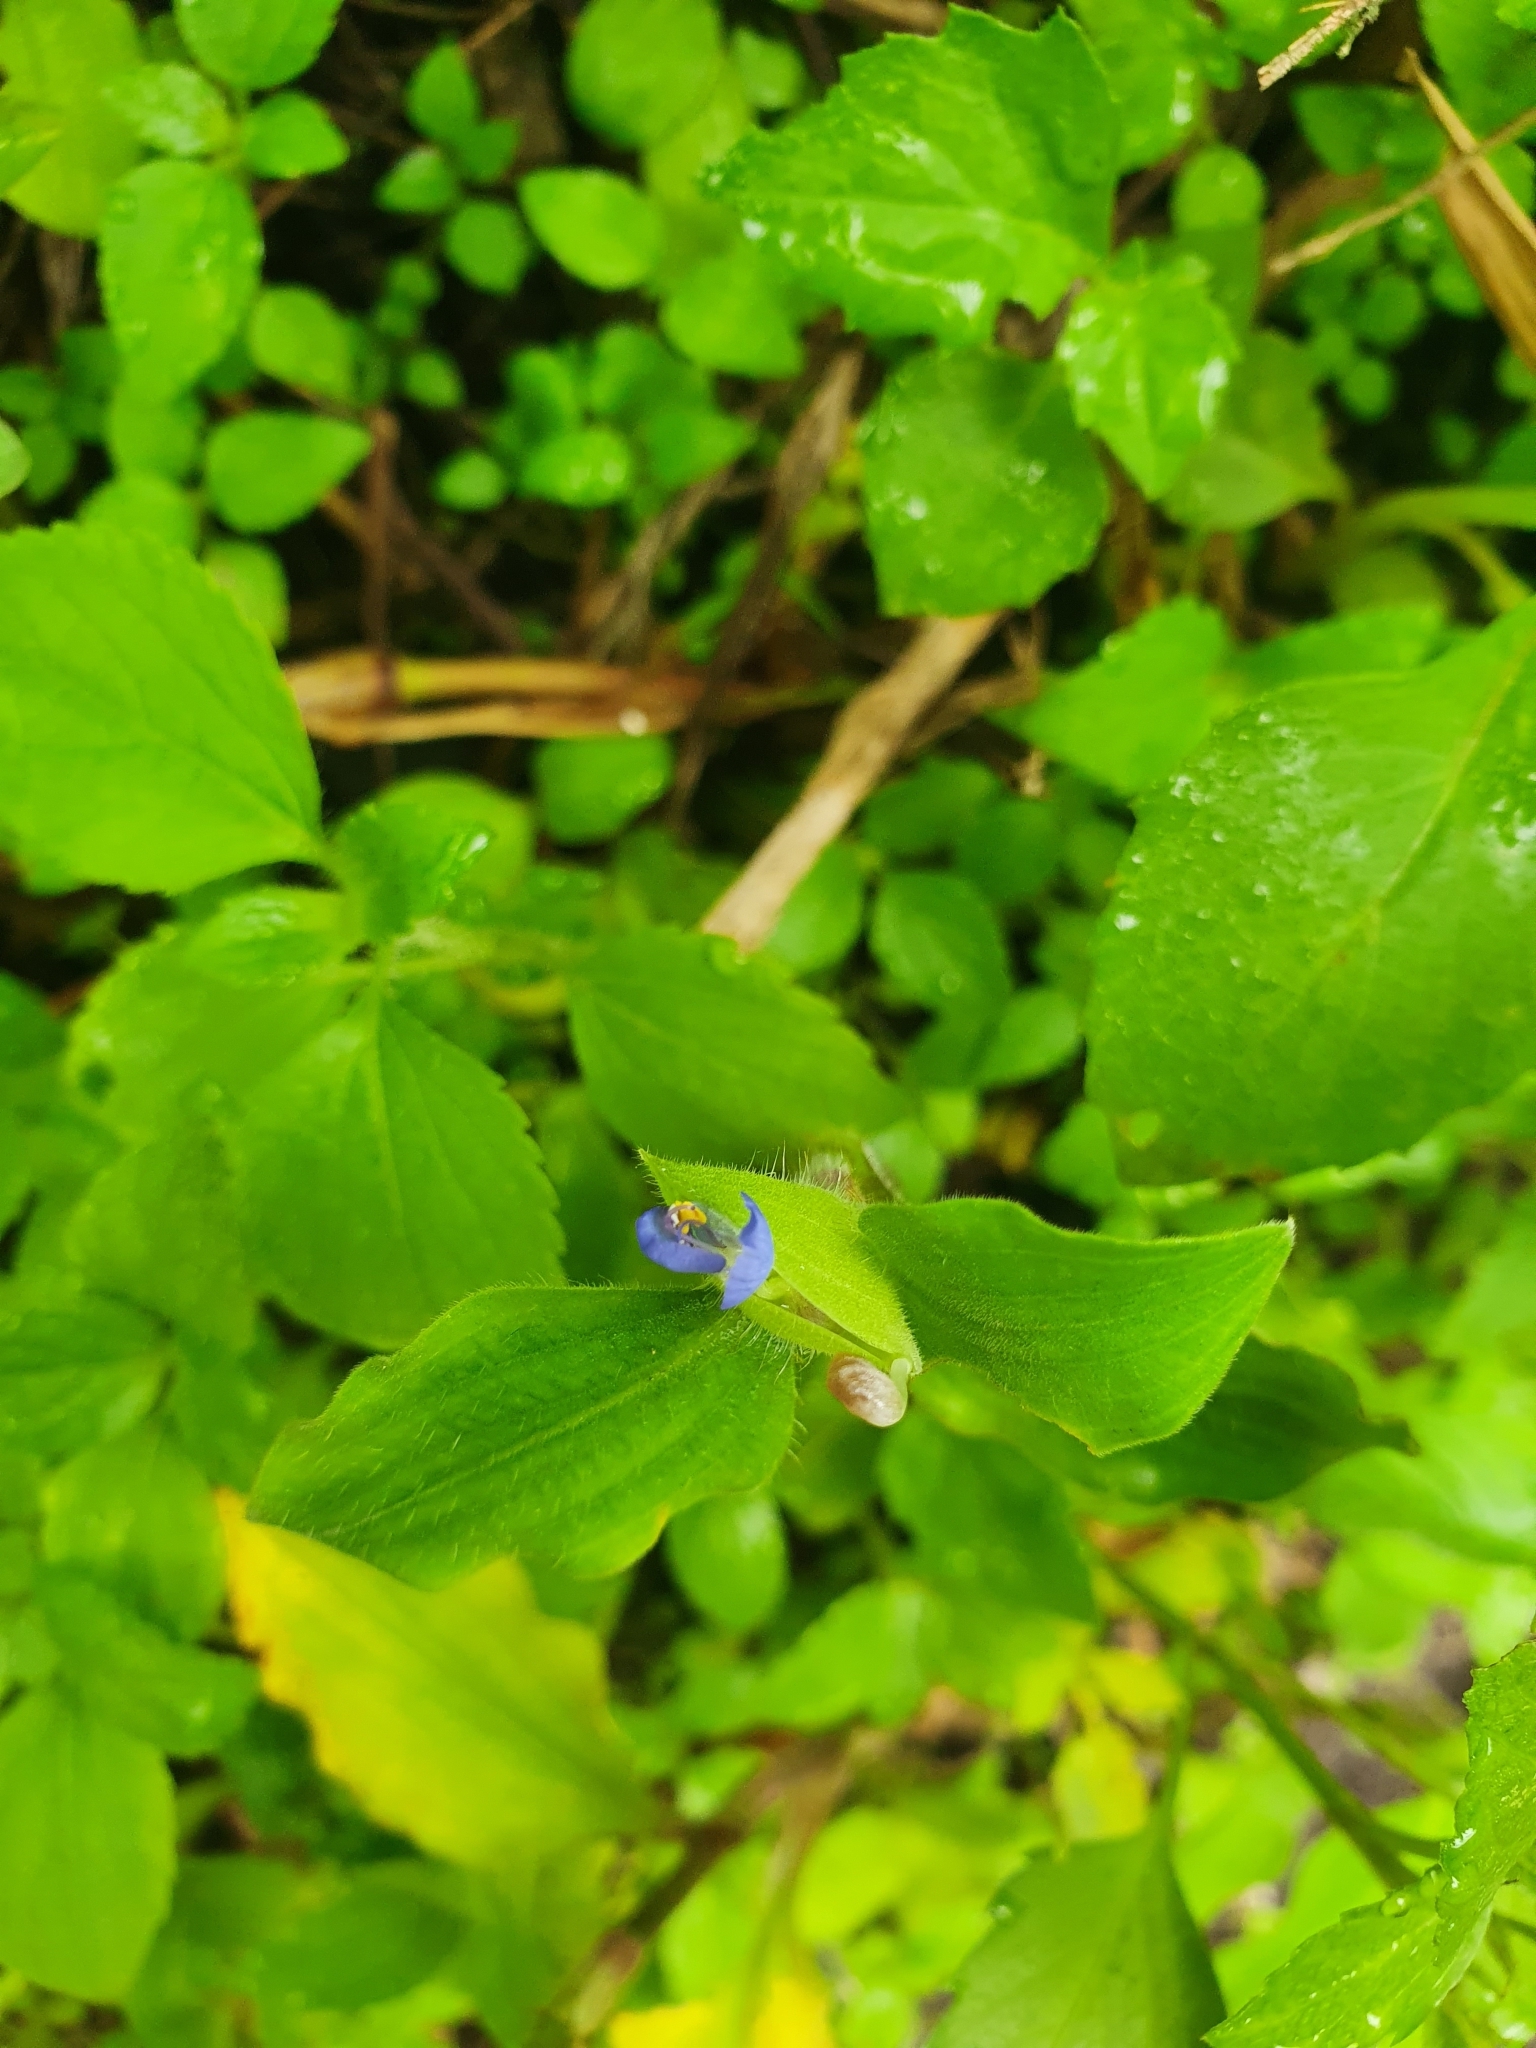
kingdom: Plantae
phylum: Tracheophyta
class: Liliopsida
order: Commelinales
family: Commelinaceae
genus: Commelina
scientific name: Commelina benghalensis
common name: Jio
